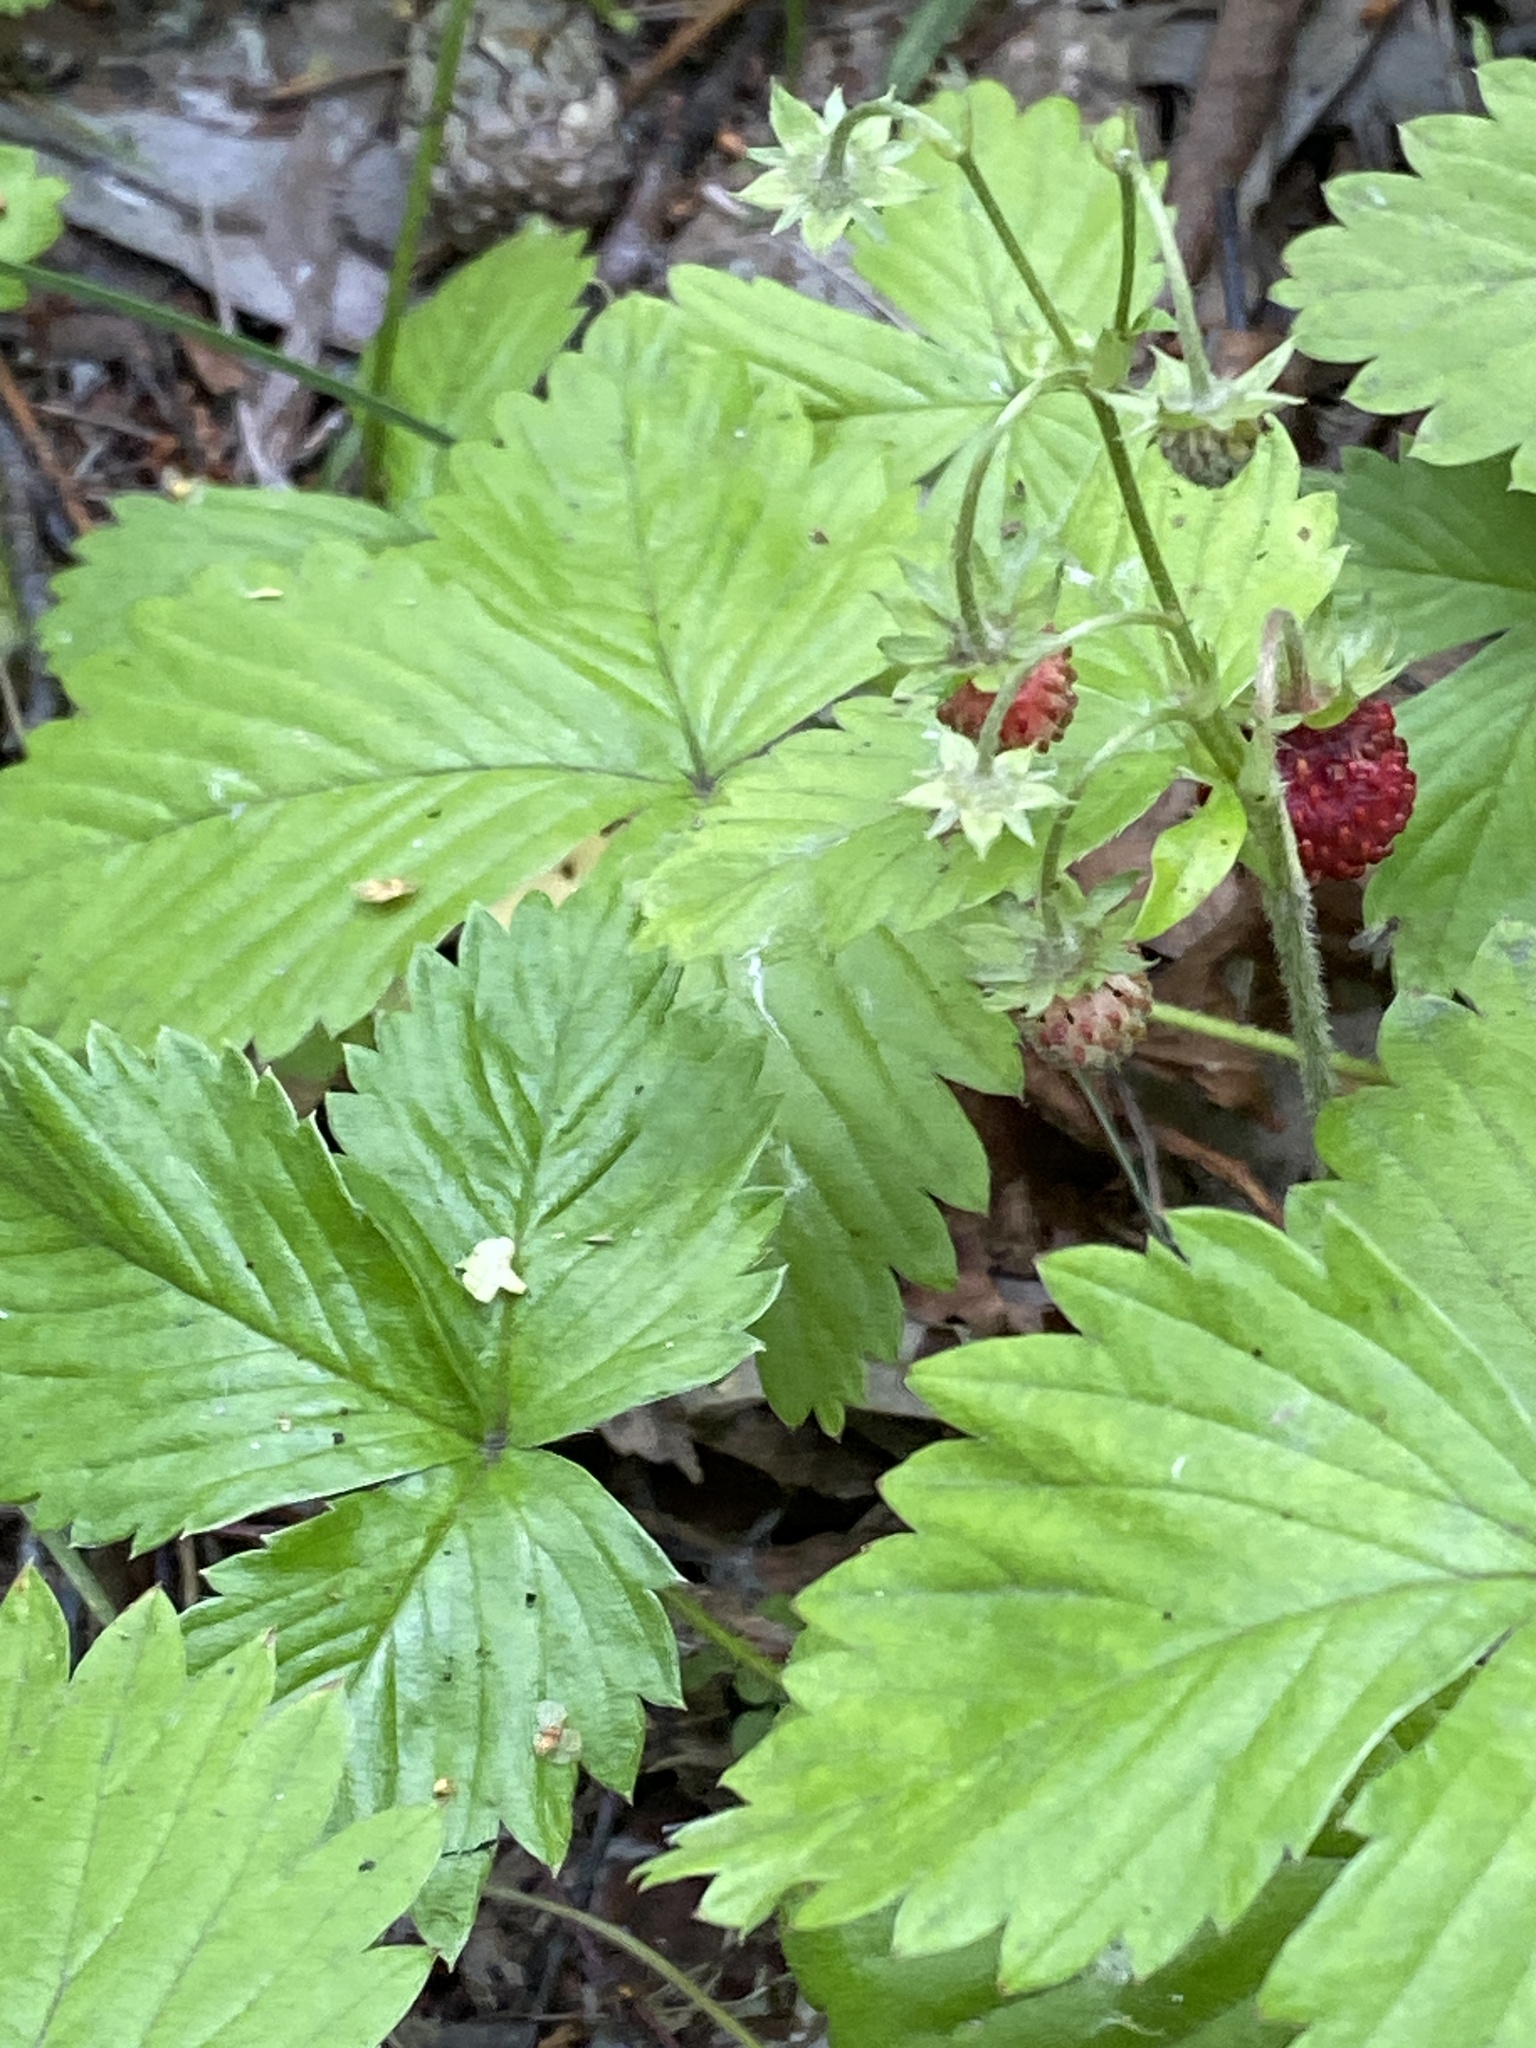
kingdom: Plantae
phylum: Tracheophyta
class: Magnoliopsida
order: Rosales
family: Rosaceae
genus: Fragaria
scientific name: Fragaria vesca
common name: Wild strawberry
